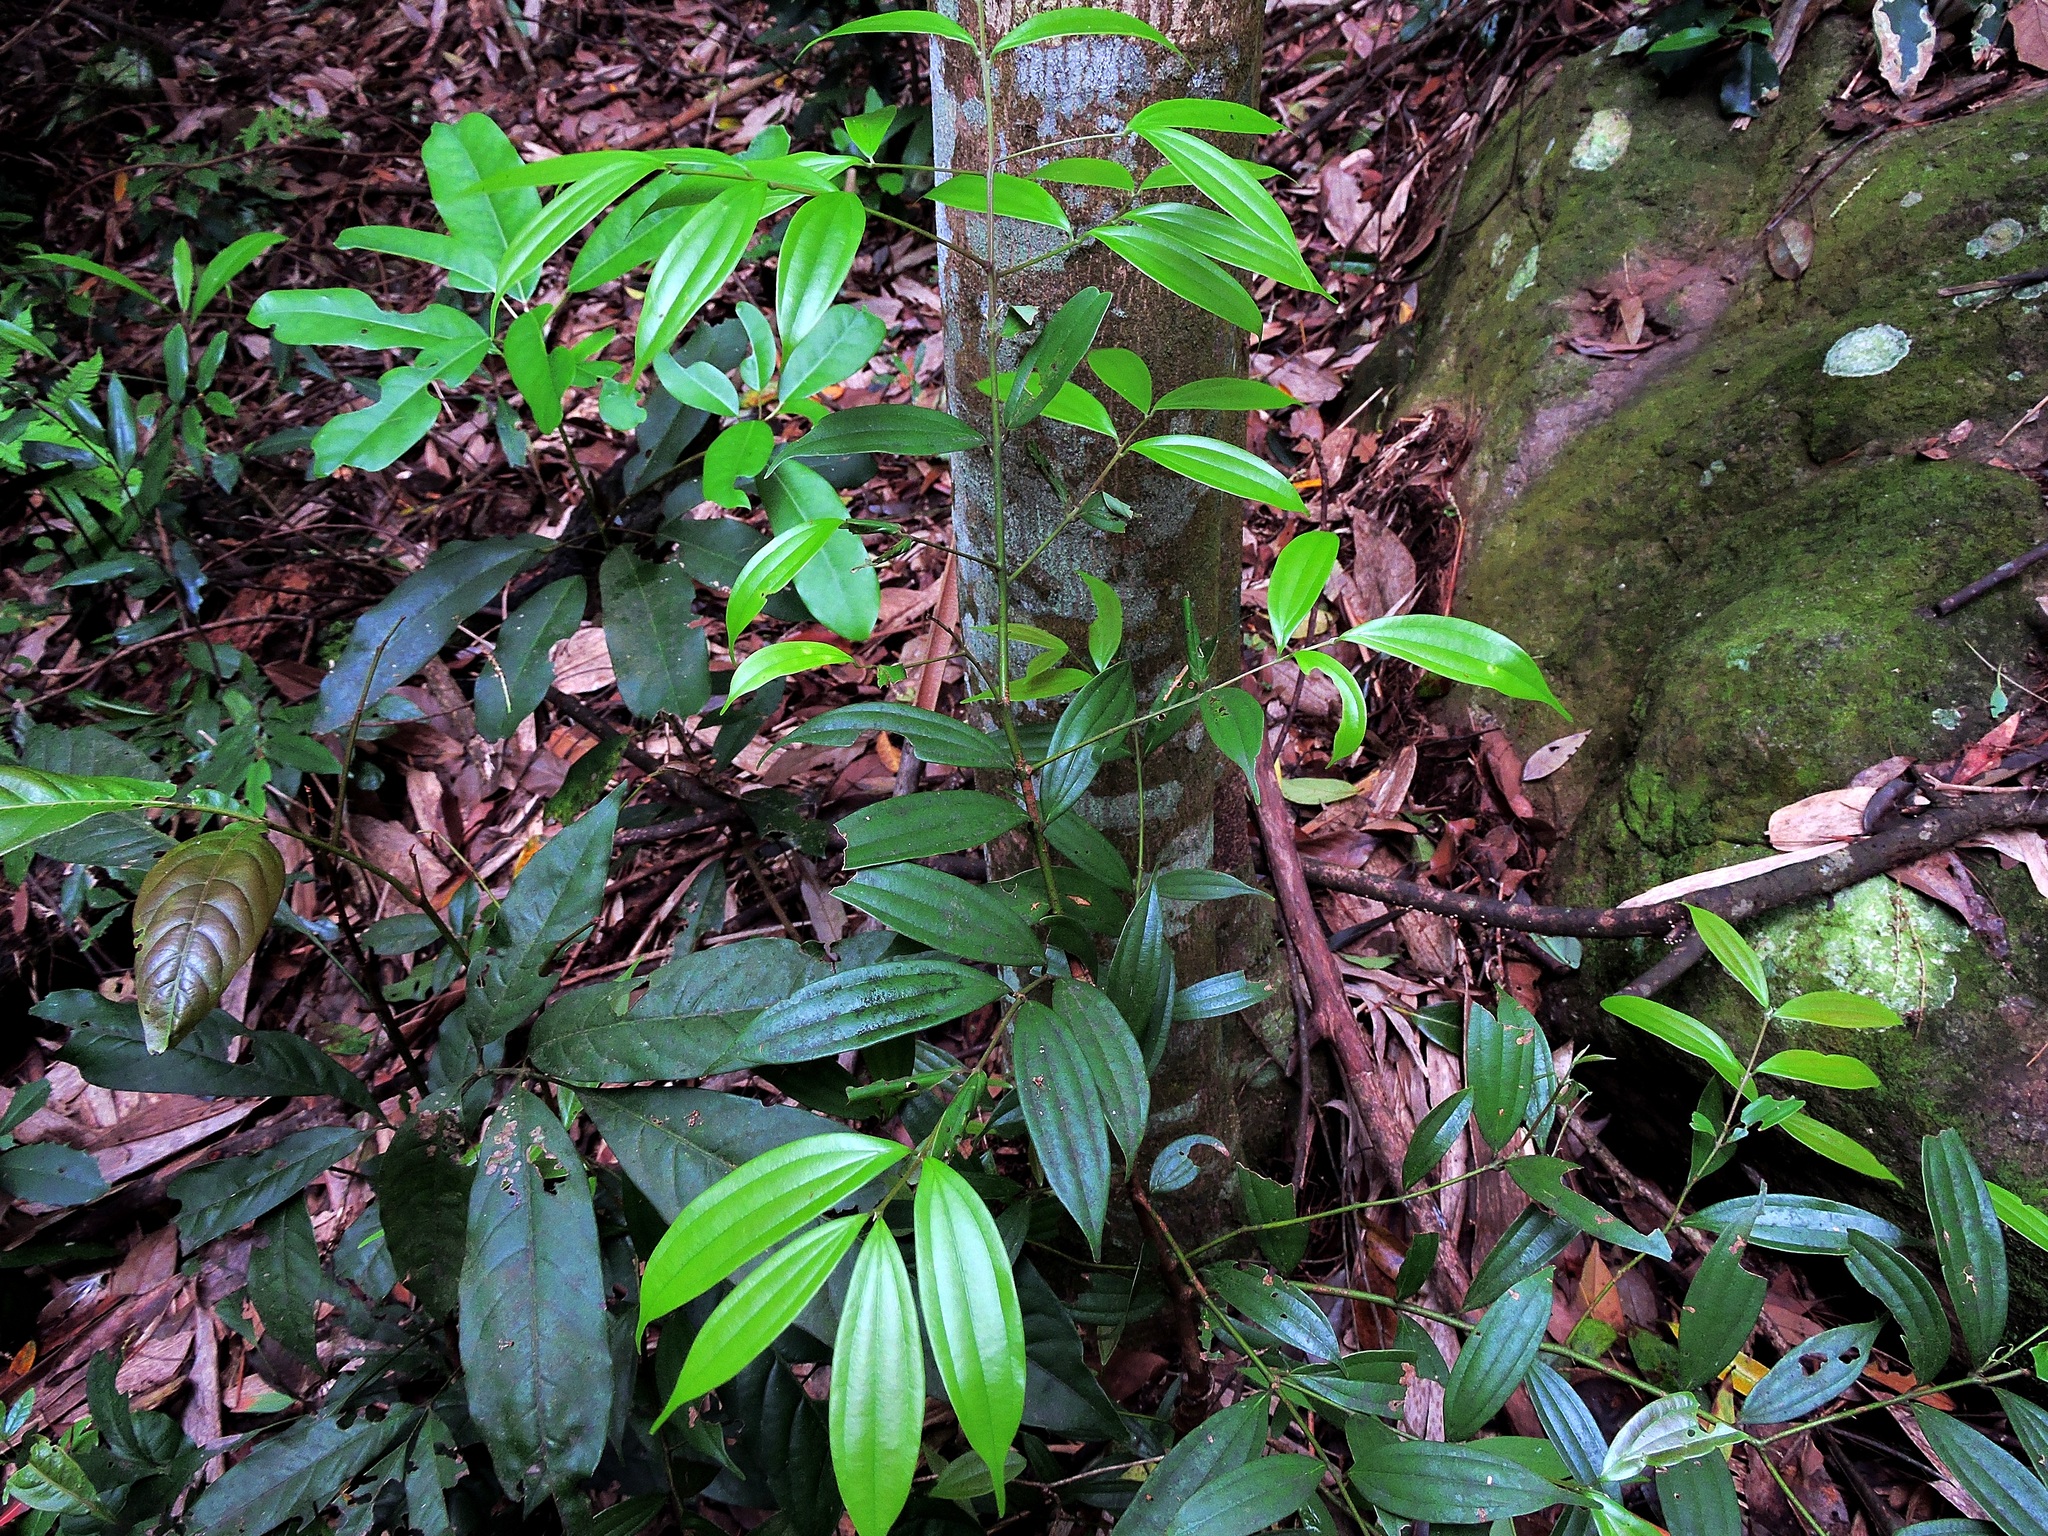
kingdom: Plantae
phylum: Tracheophyta
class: Magnoliopsida
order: Laurales
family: Lauraceae
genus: Cinnamomum
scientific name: Cinnamomum subavenium
